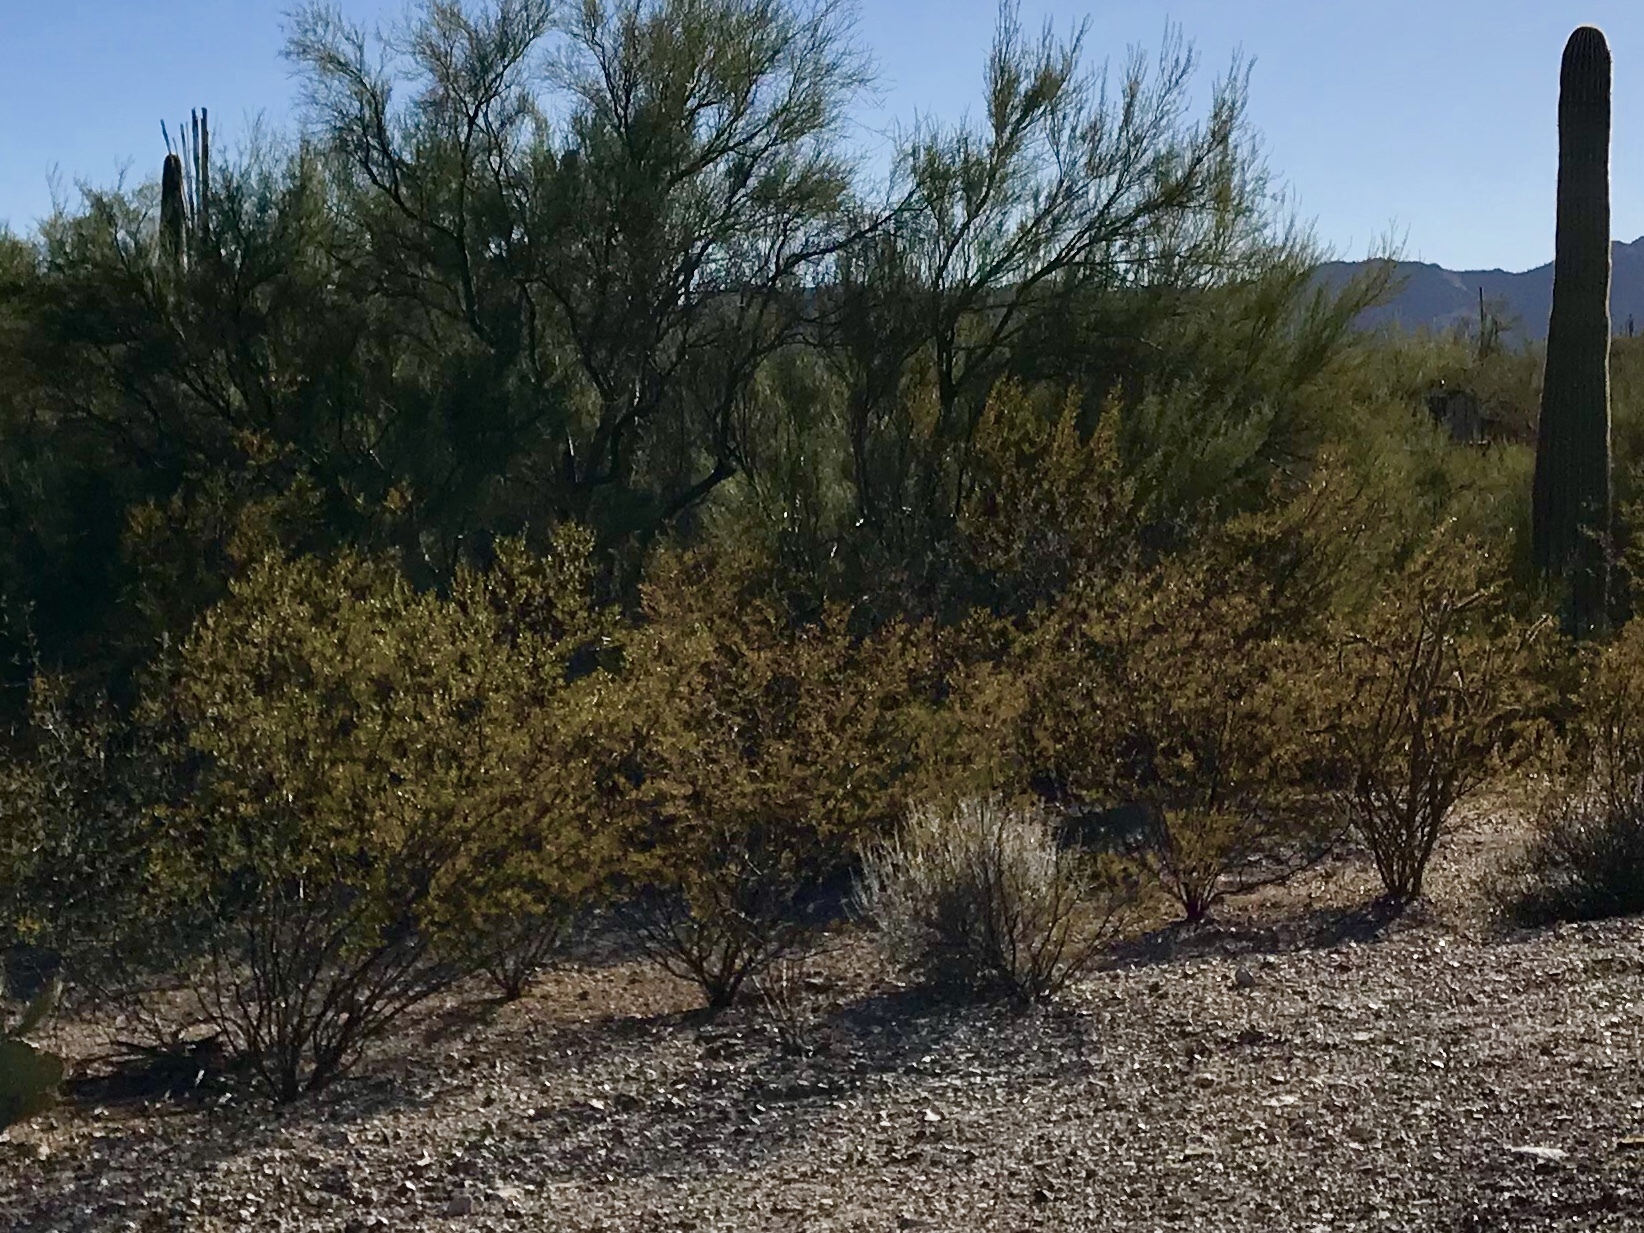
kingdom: Plantae
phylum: Tracheophyta
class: Magnoliopsida
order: Zygophyllales
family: Zygophyllaceae
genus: Larrea
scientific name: Larrea tridentata
